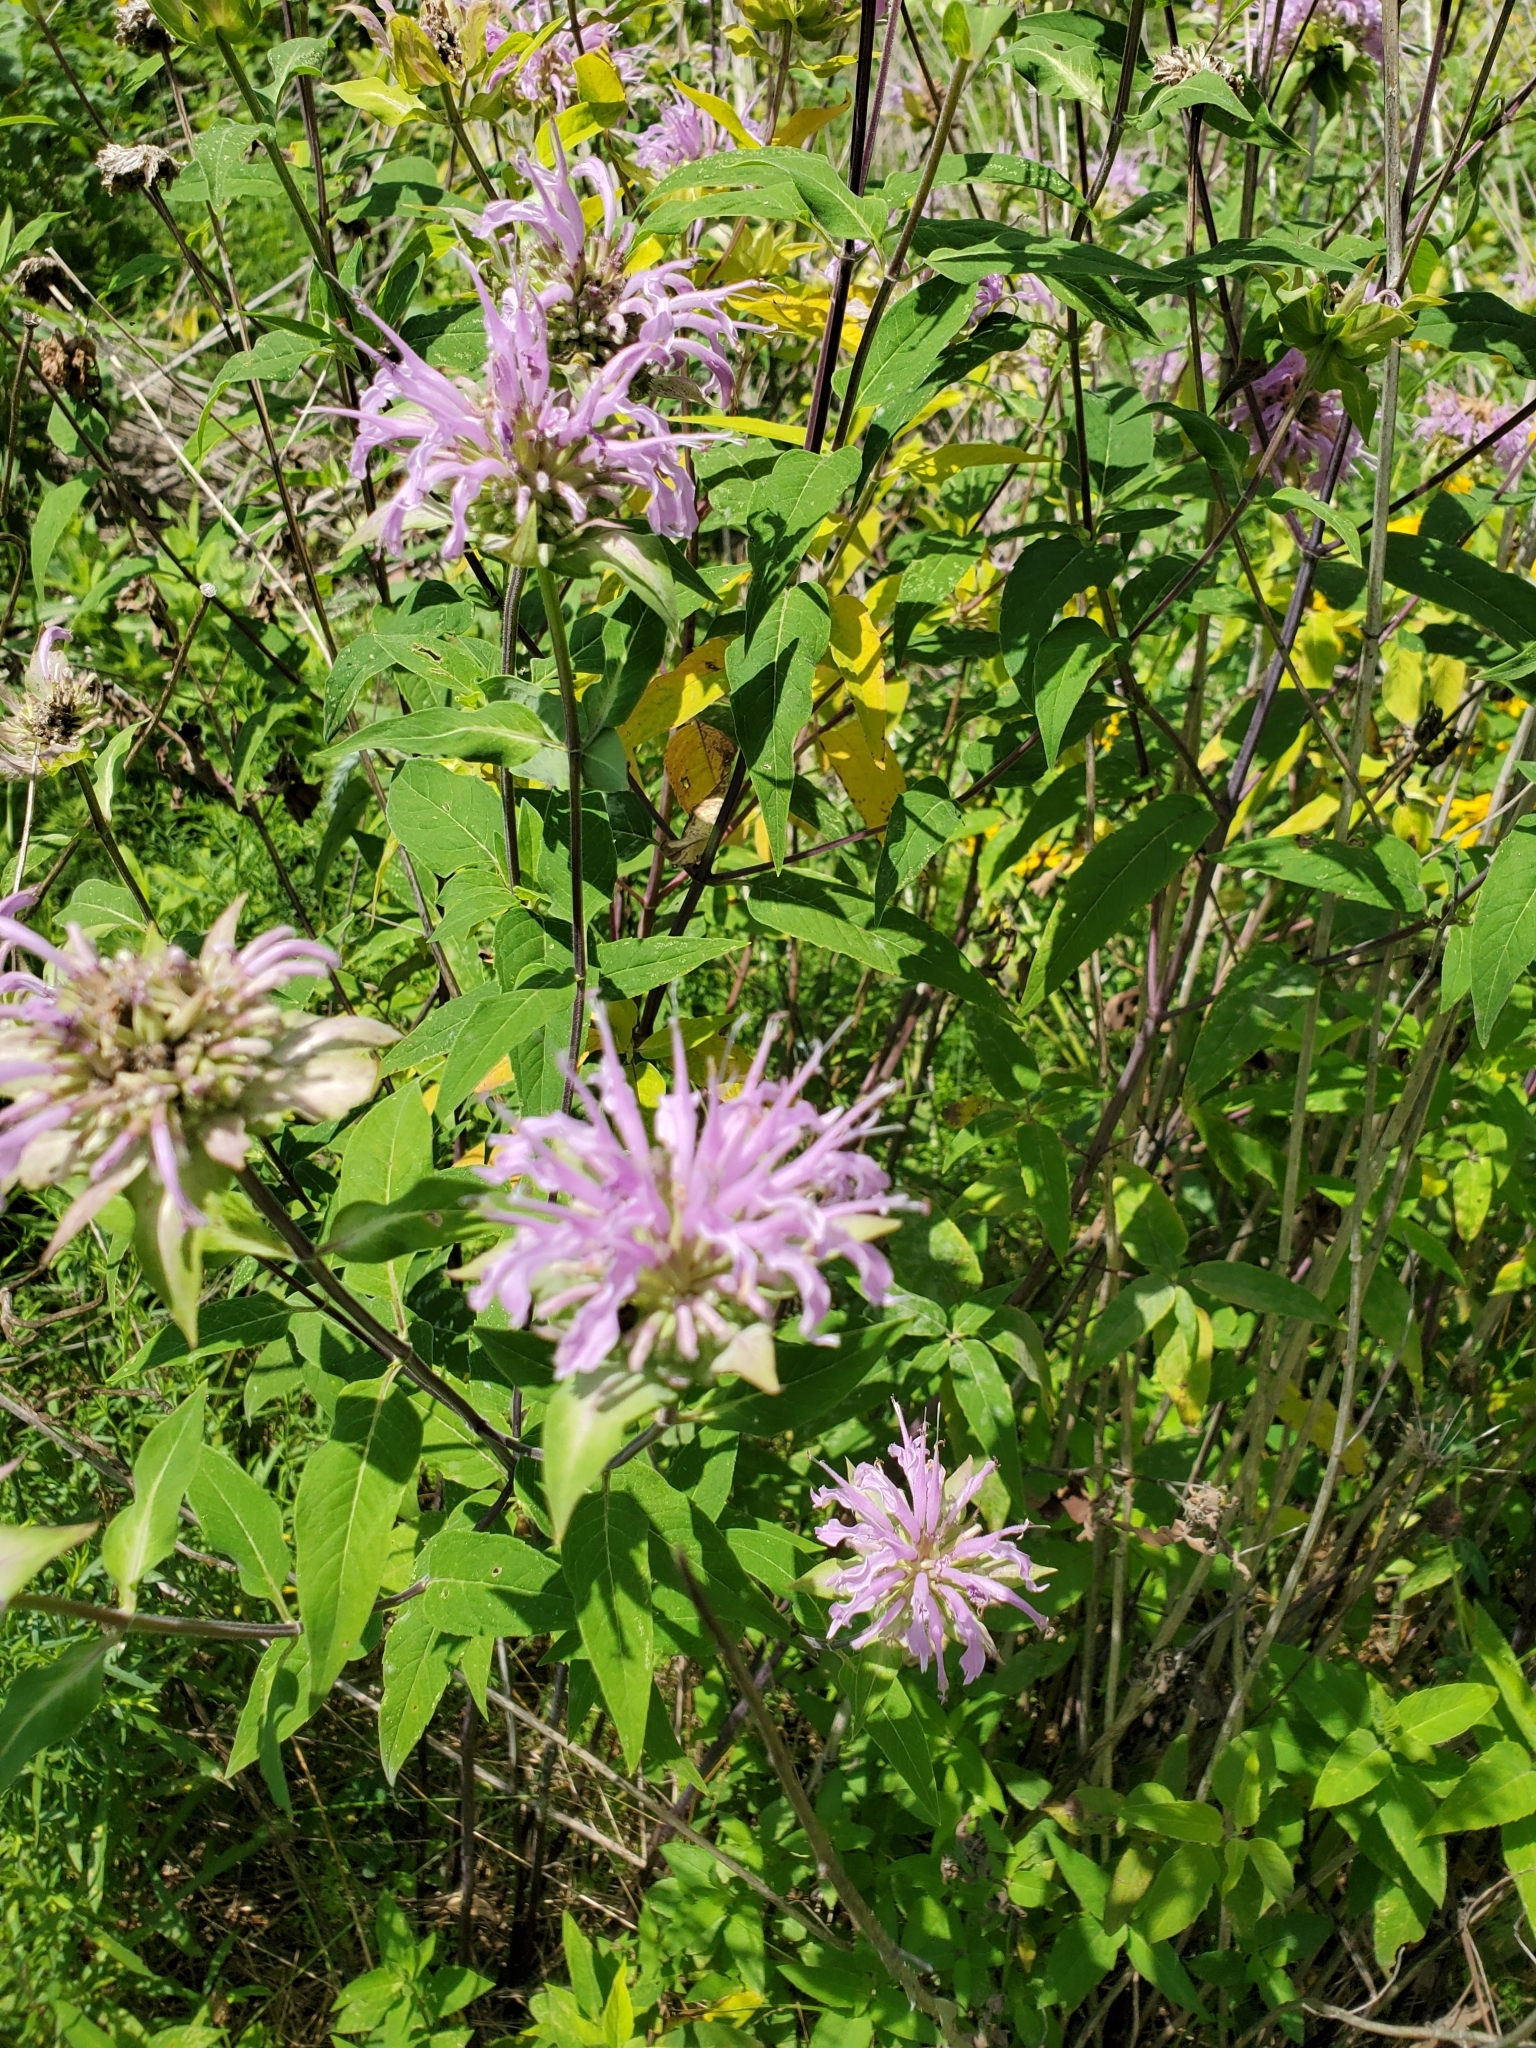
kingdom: Plantae
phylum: Tracheophyta
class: Magnoliopsida
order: Lamiales
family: Lamiaceae
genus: Monarda
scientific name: Monarda fistulosa
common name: Purple beebalm
